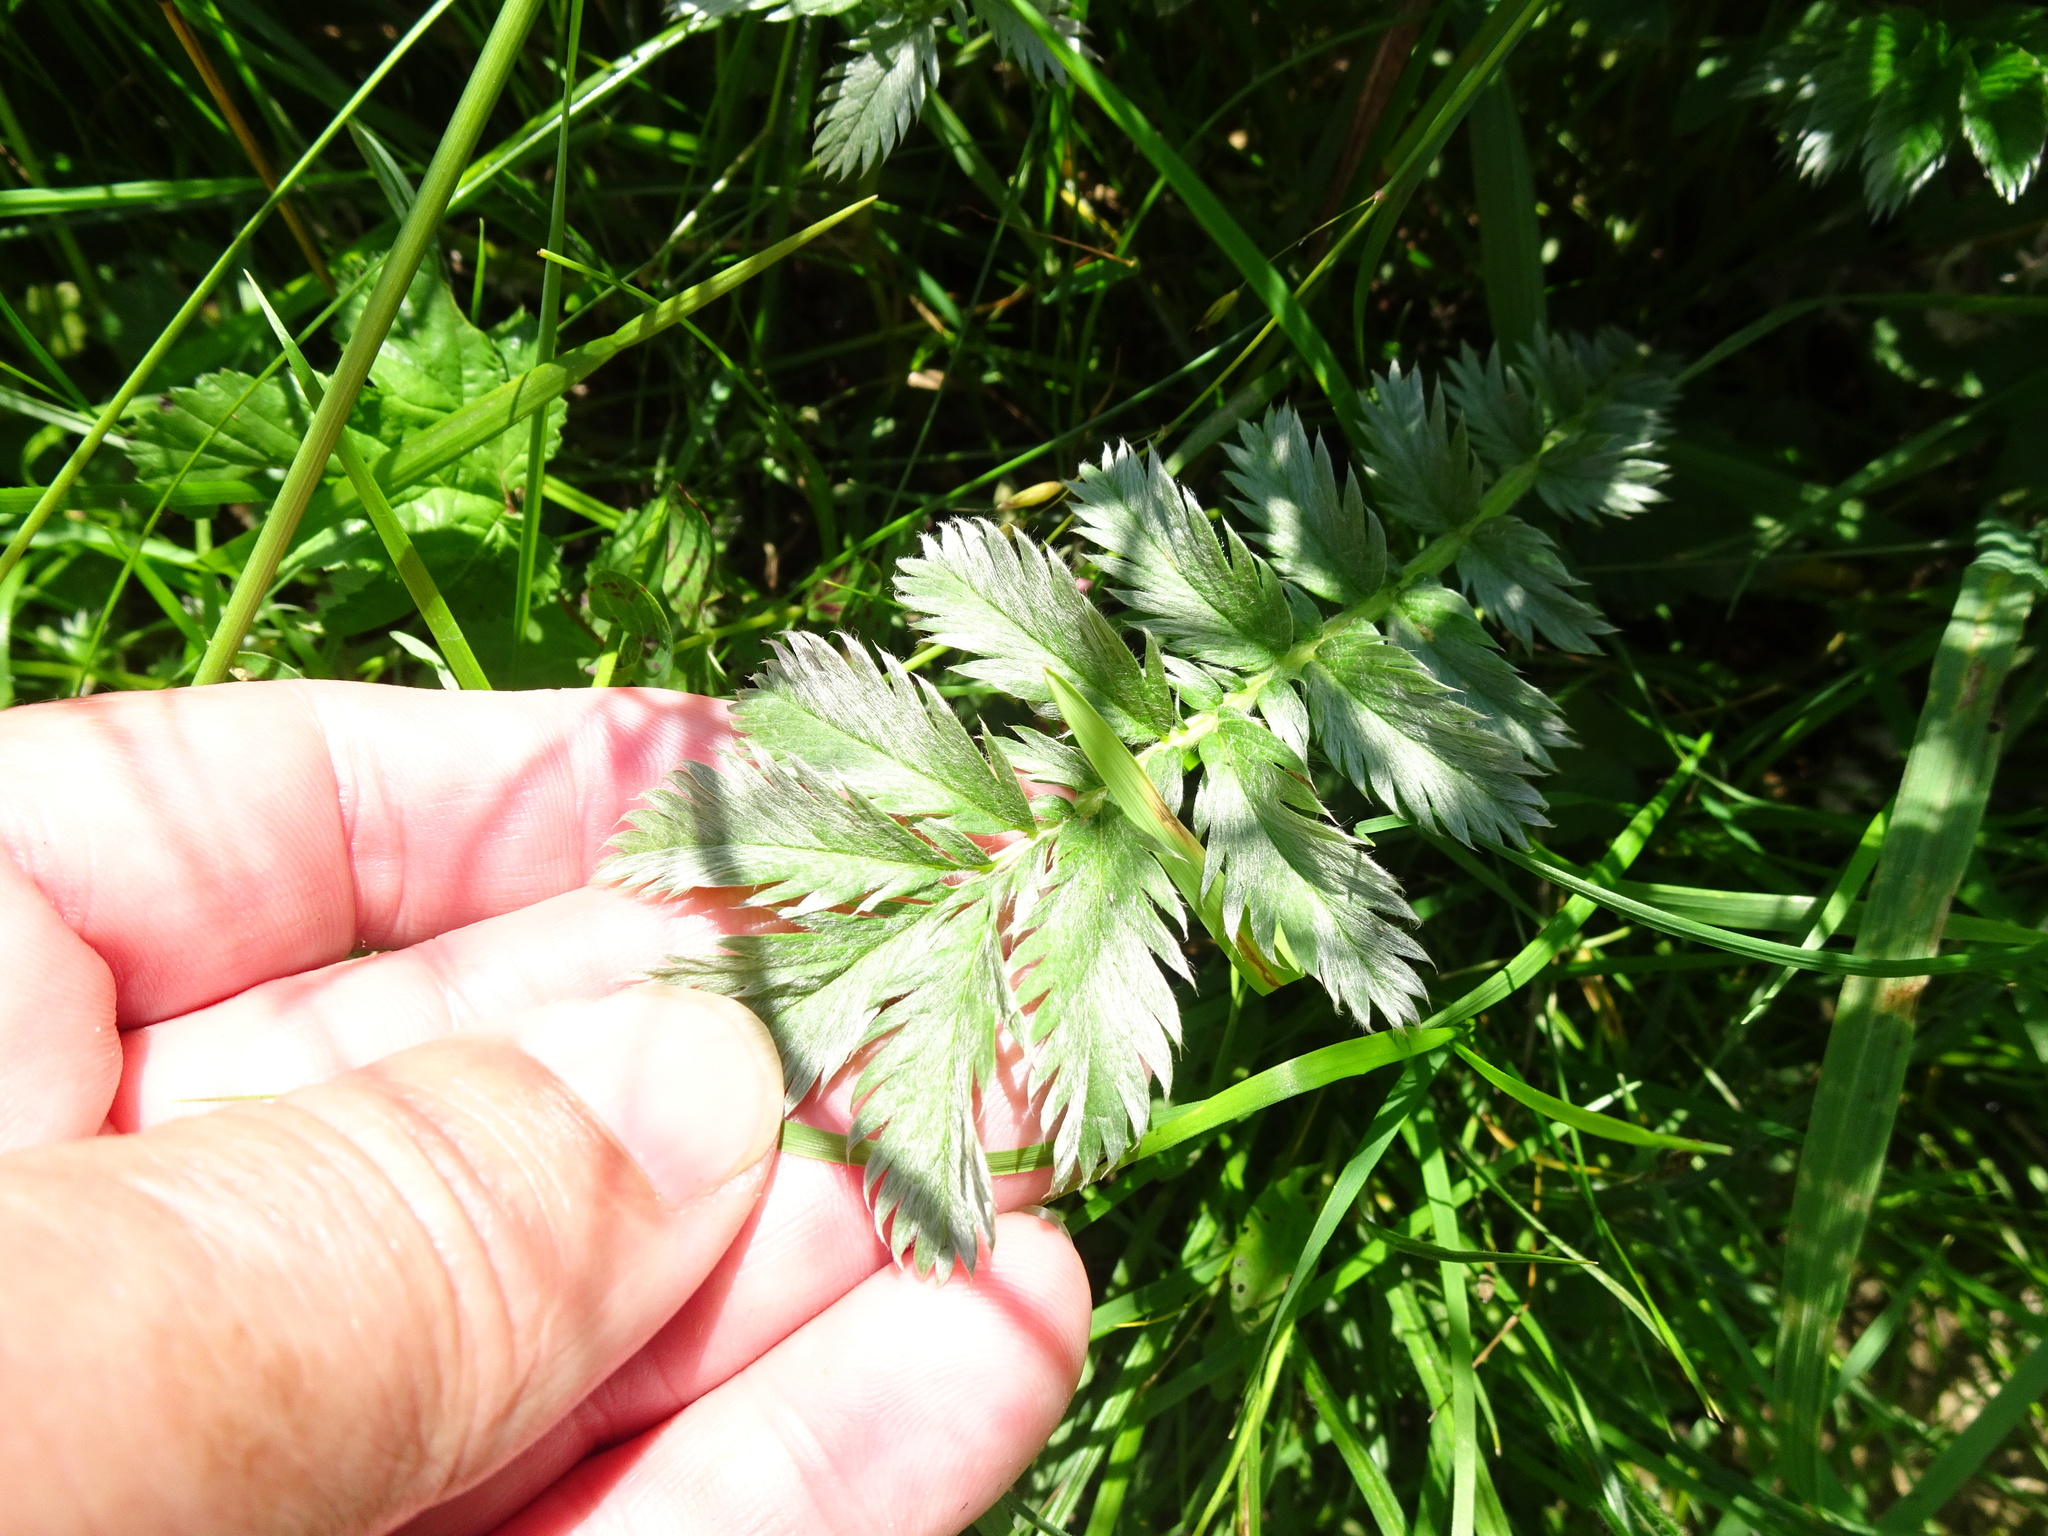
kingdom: Plantae
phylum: Tracheophyta
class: Magnoliopsida
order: Rosales
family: Rosaceae
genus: Argentina
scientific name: Argentina anserina
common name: Common silverweed
